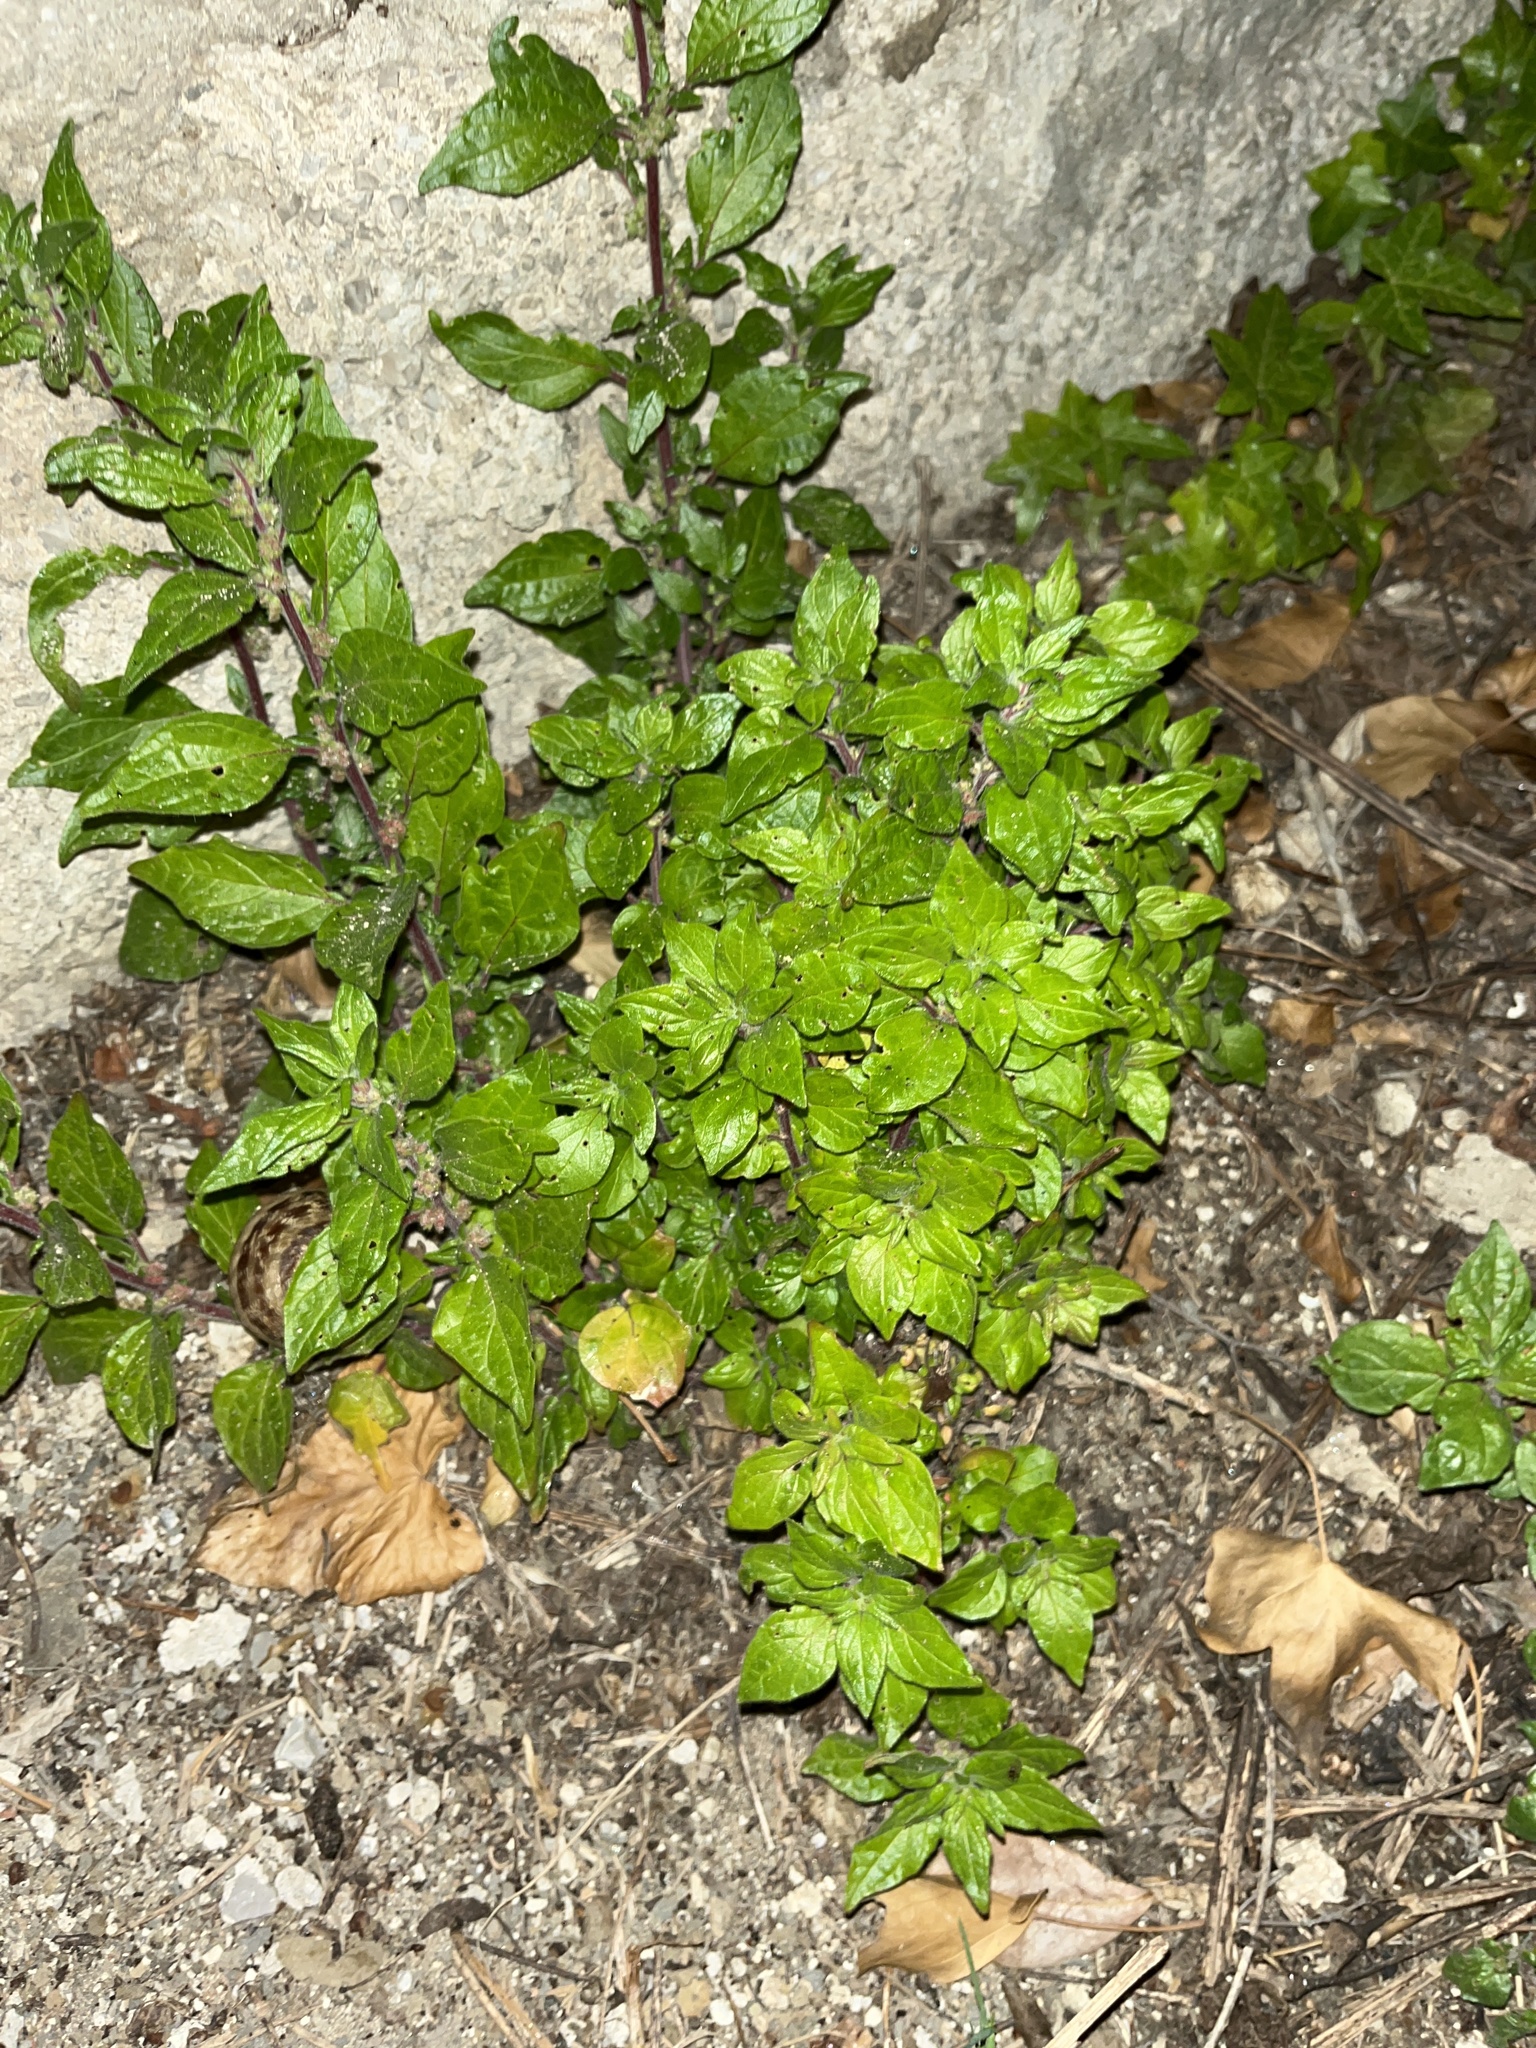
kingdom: Plantae
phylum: Tracheophyta
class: Magnoliopsida
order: Rosales
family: Urticaceae
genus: Parietaria
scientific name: Parietaria judaica
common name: Pellitory-of-the-wall
